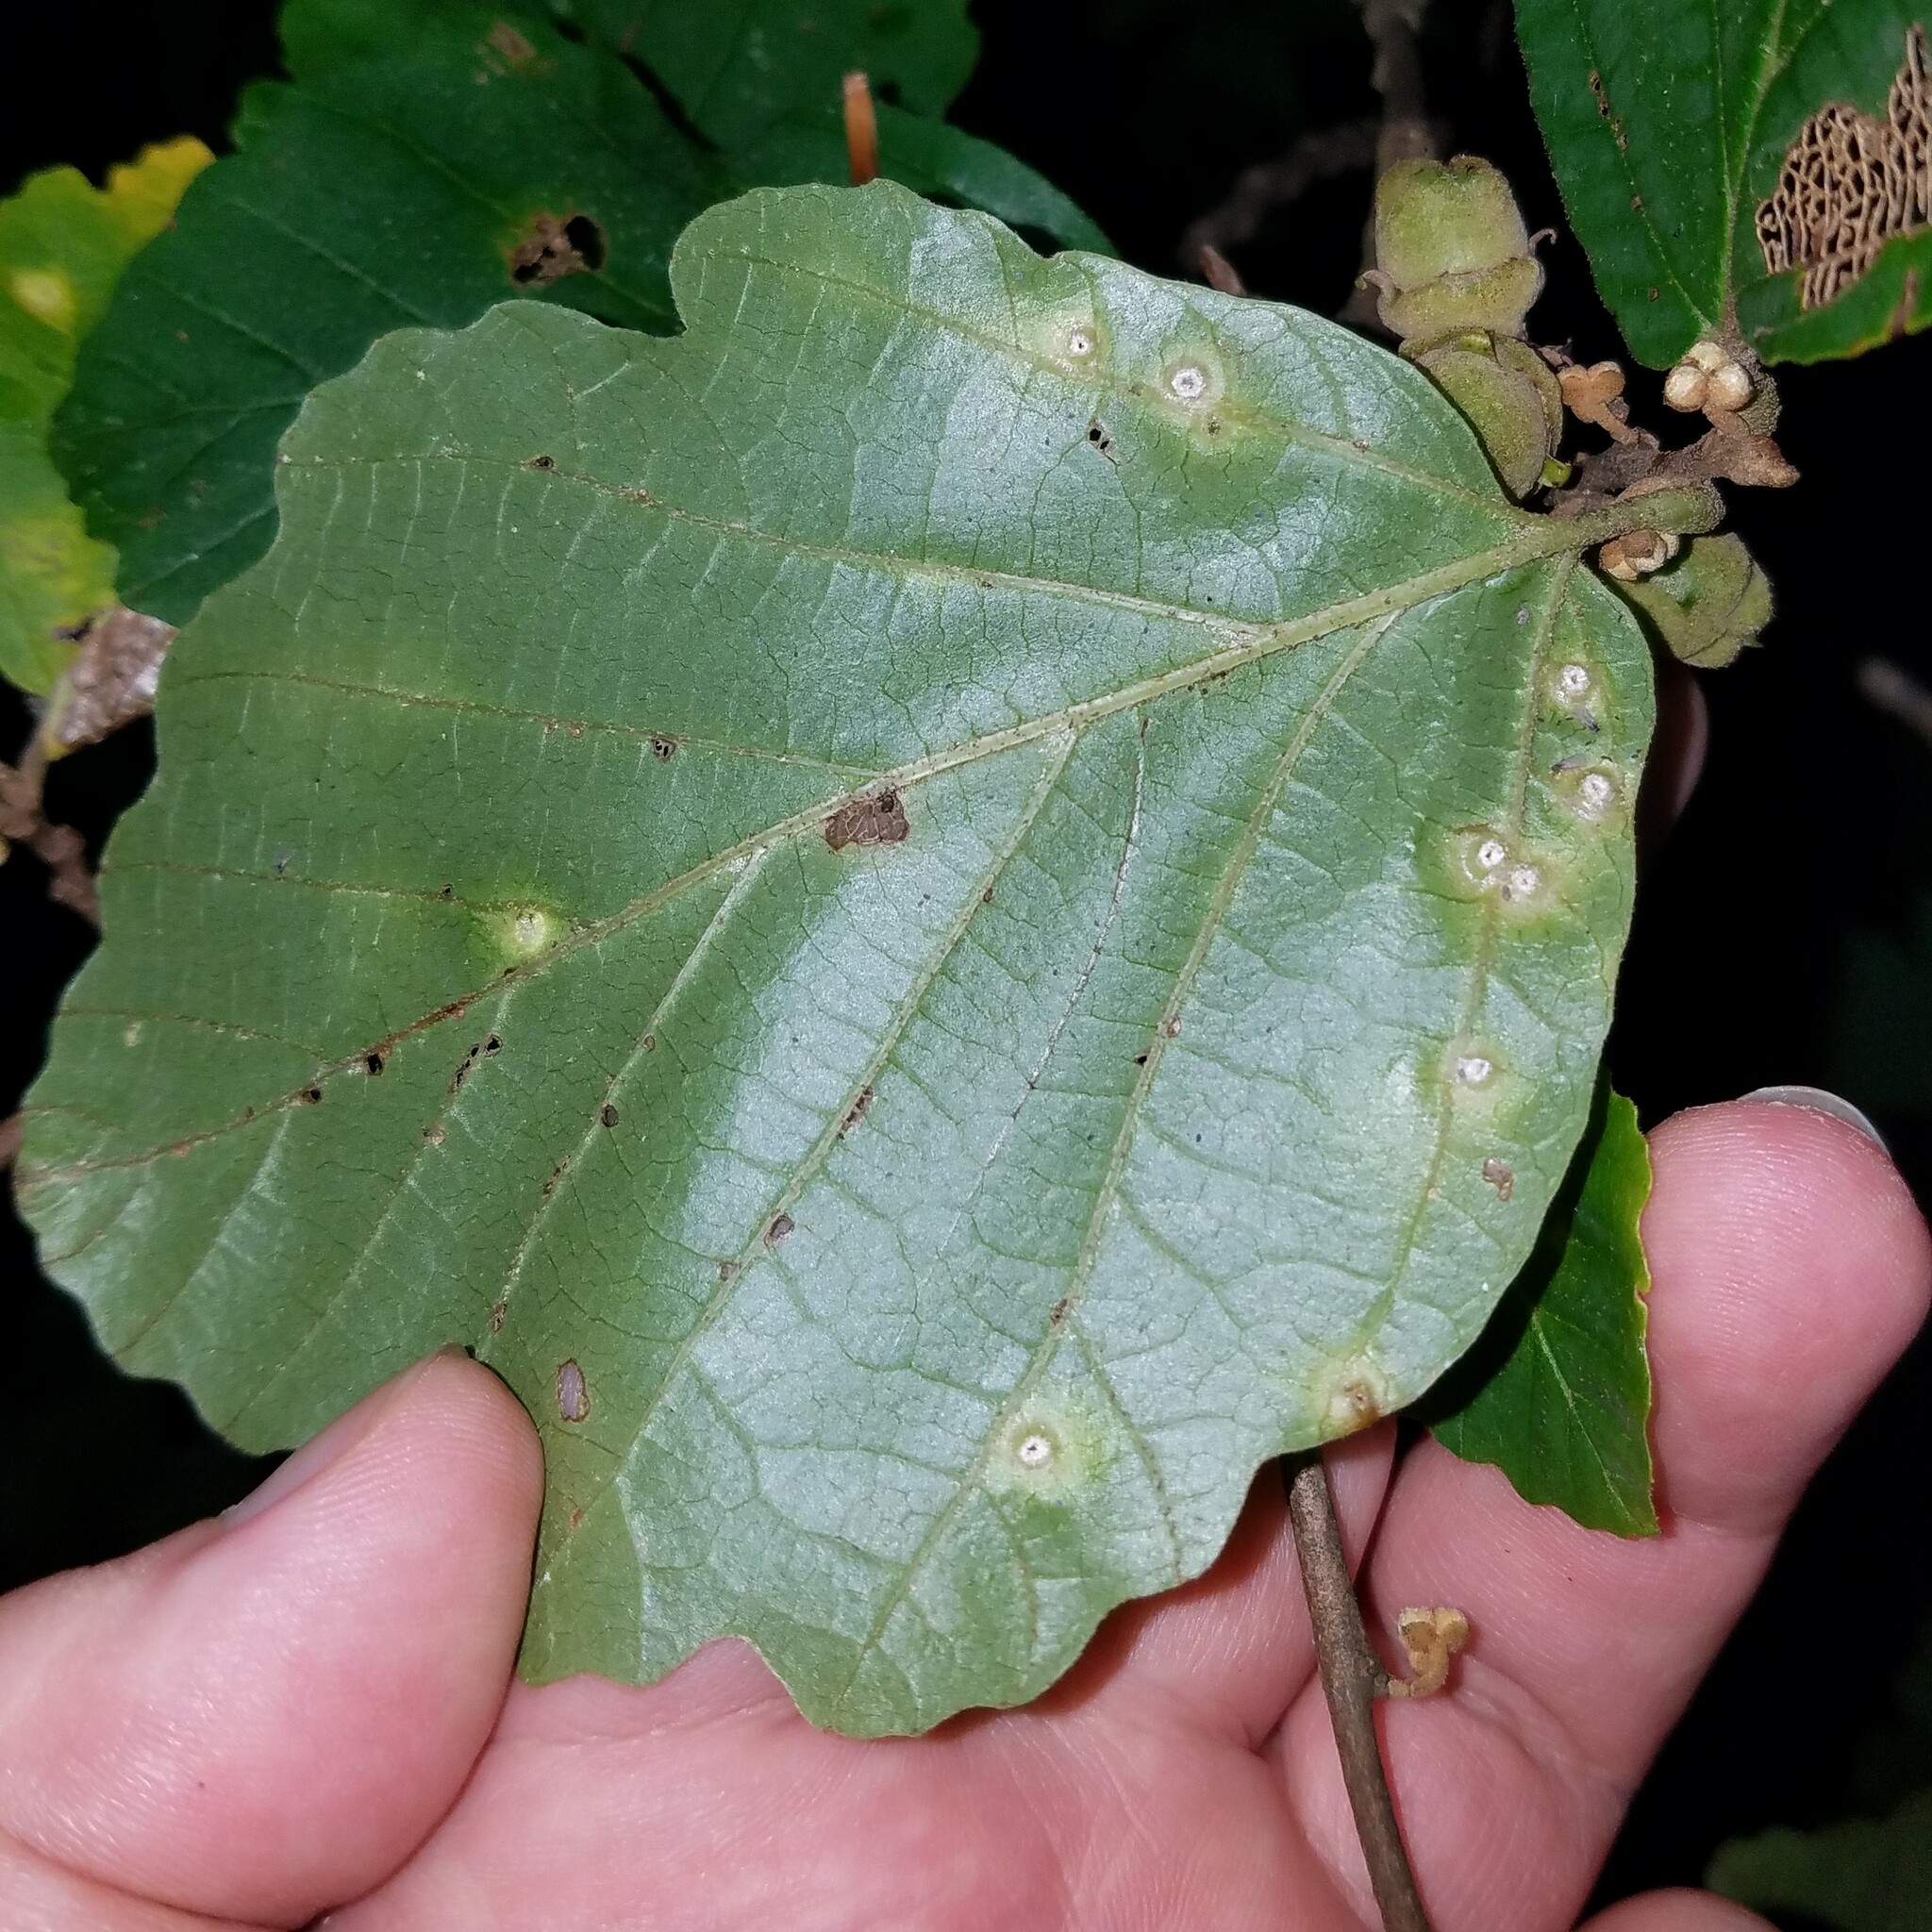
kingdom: Animalia
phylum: Arthropoda
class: Insecta
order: Hemiptera
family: Aphididae
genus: Hormaphis
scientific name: Hormaphis hamamelidis
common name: Witch-hazel cone gall aphid
